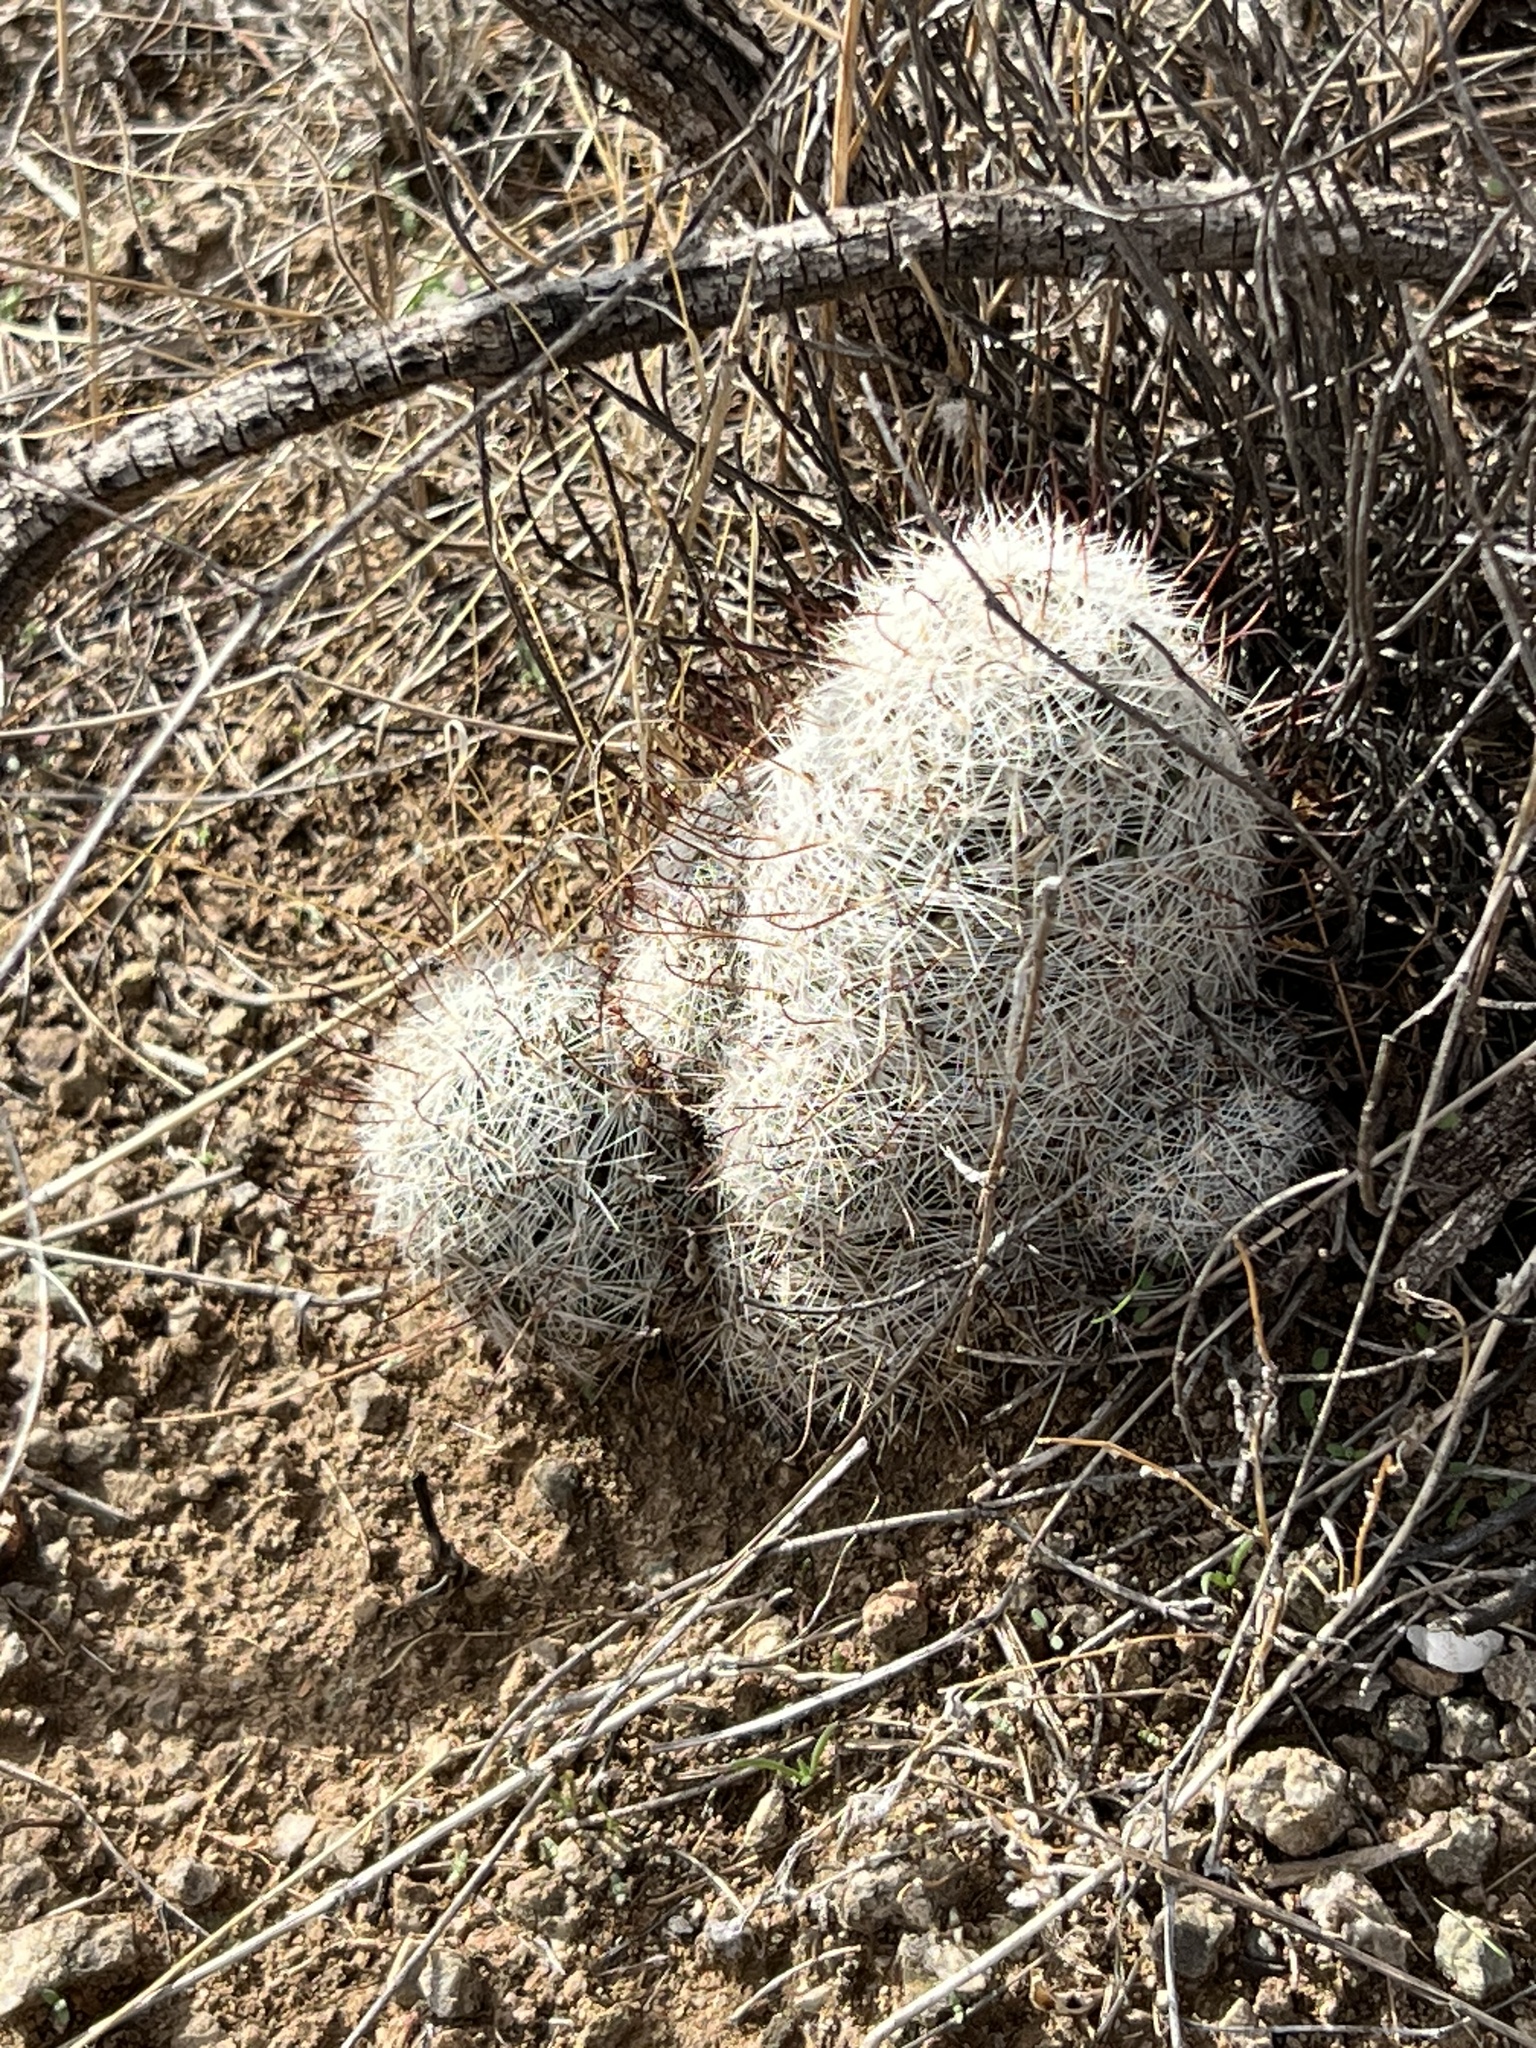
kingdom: Plantae
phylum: Tracheophyta
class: Magnoliopsida
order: Caryophyllales
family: Cactaceae
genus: Cochemiea
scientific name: Cochemiea grahamii
